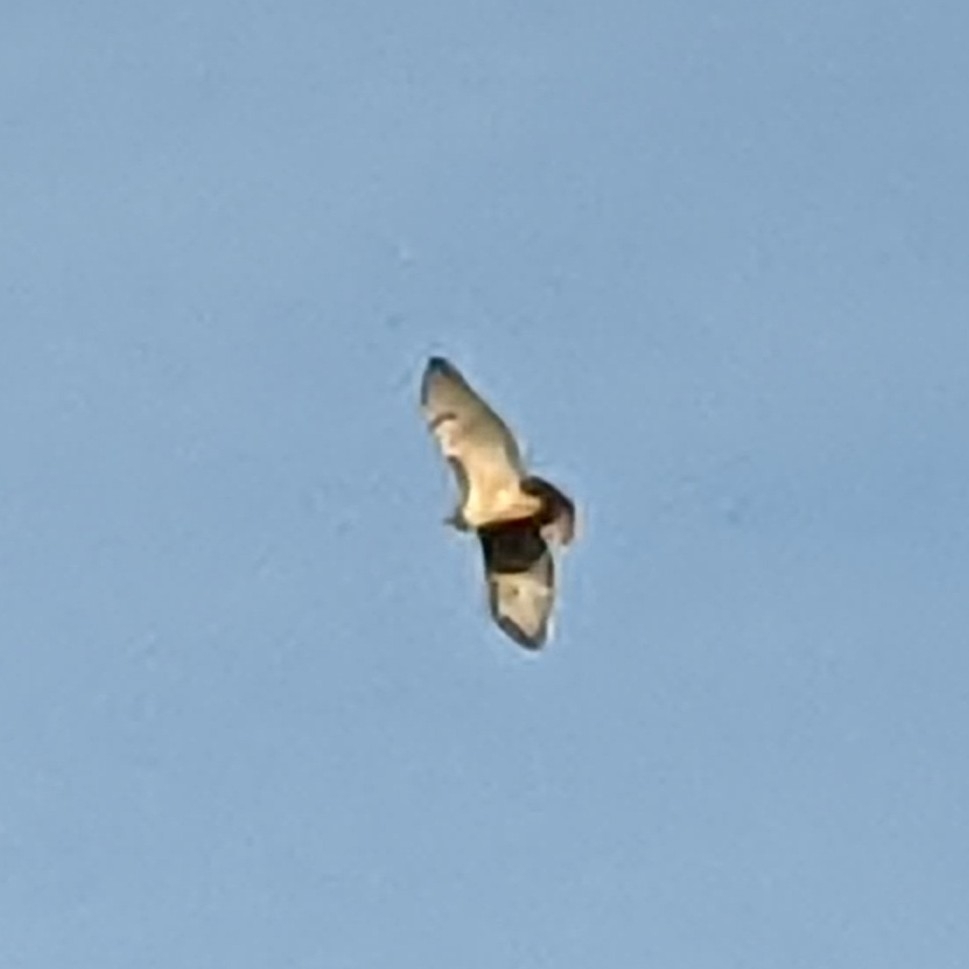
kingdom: Animalia
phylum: Chordata
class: Aves
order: Accipitriformes
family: Accipitridae
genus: Buteo
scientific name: Buteo jamaicensis
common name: Red-tailed hawk
